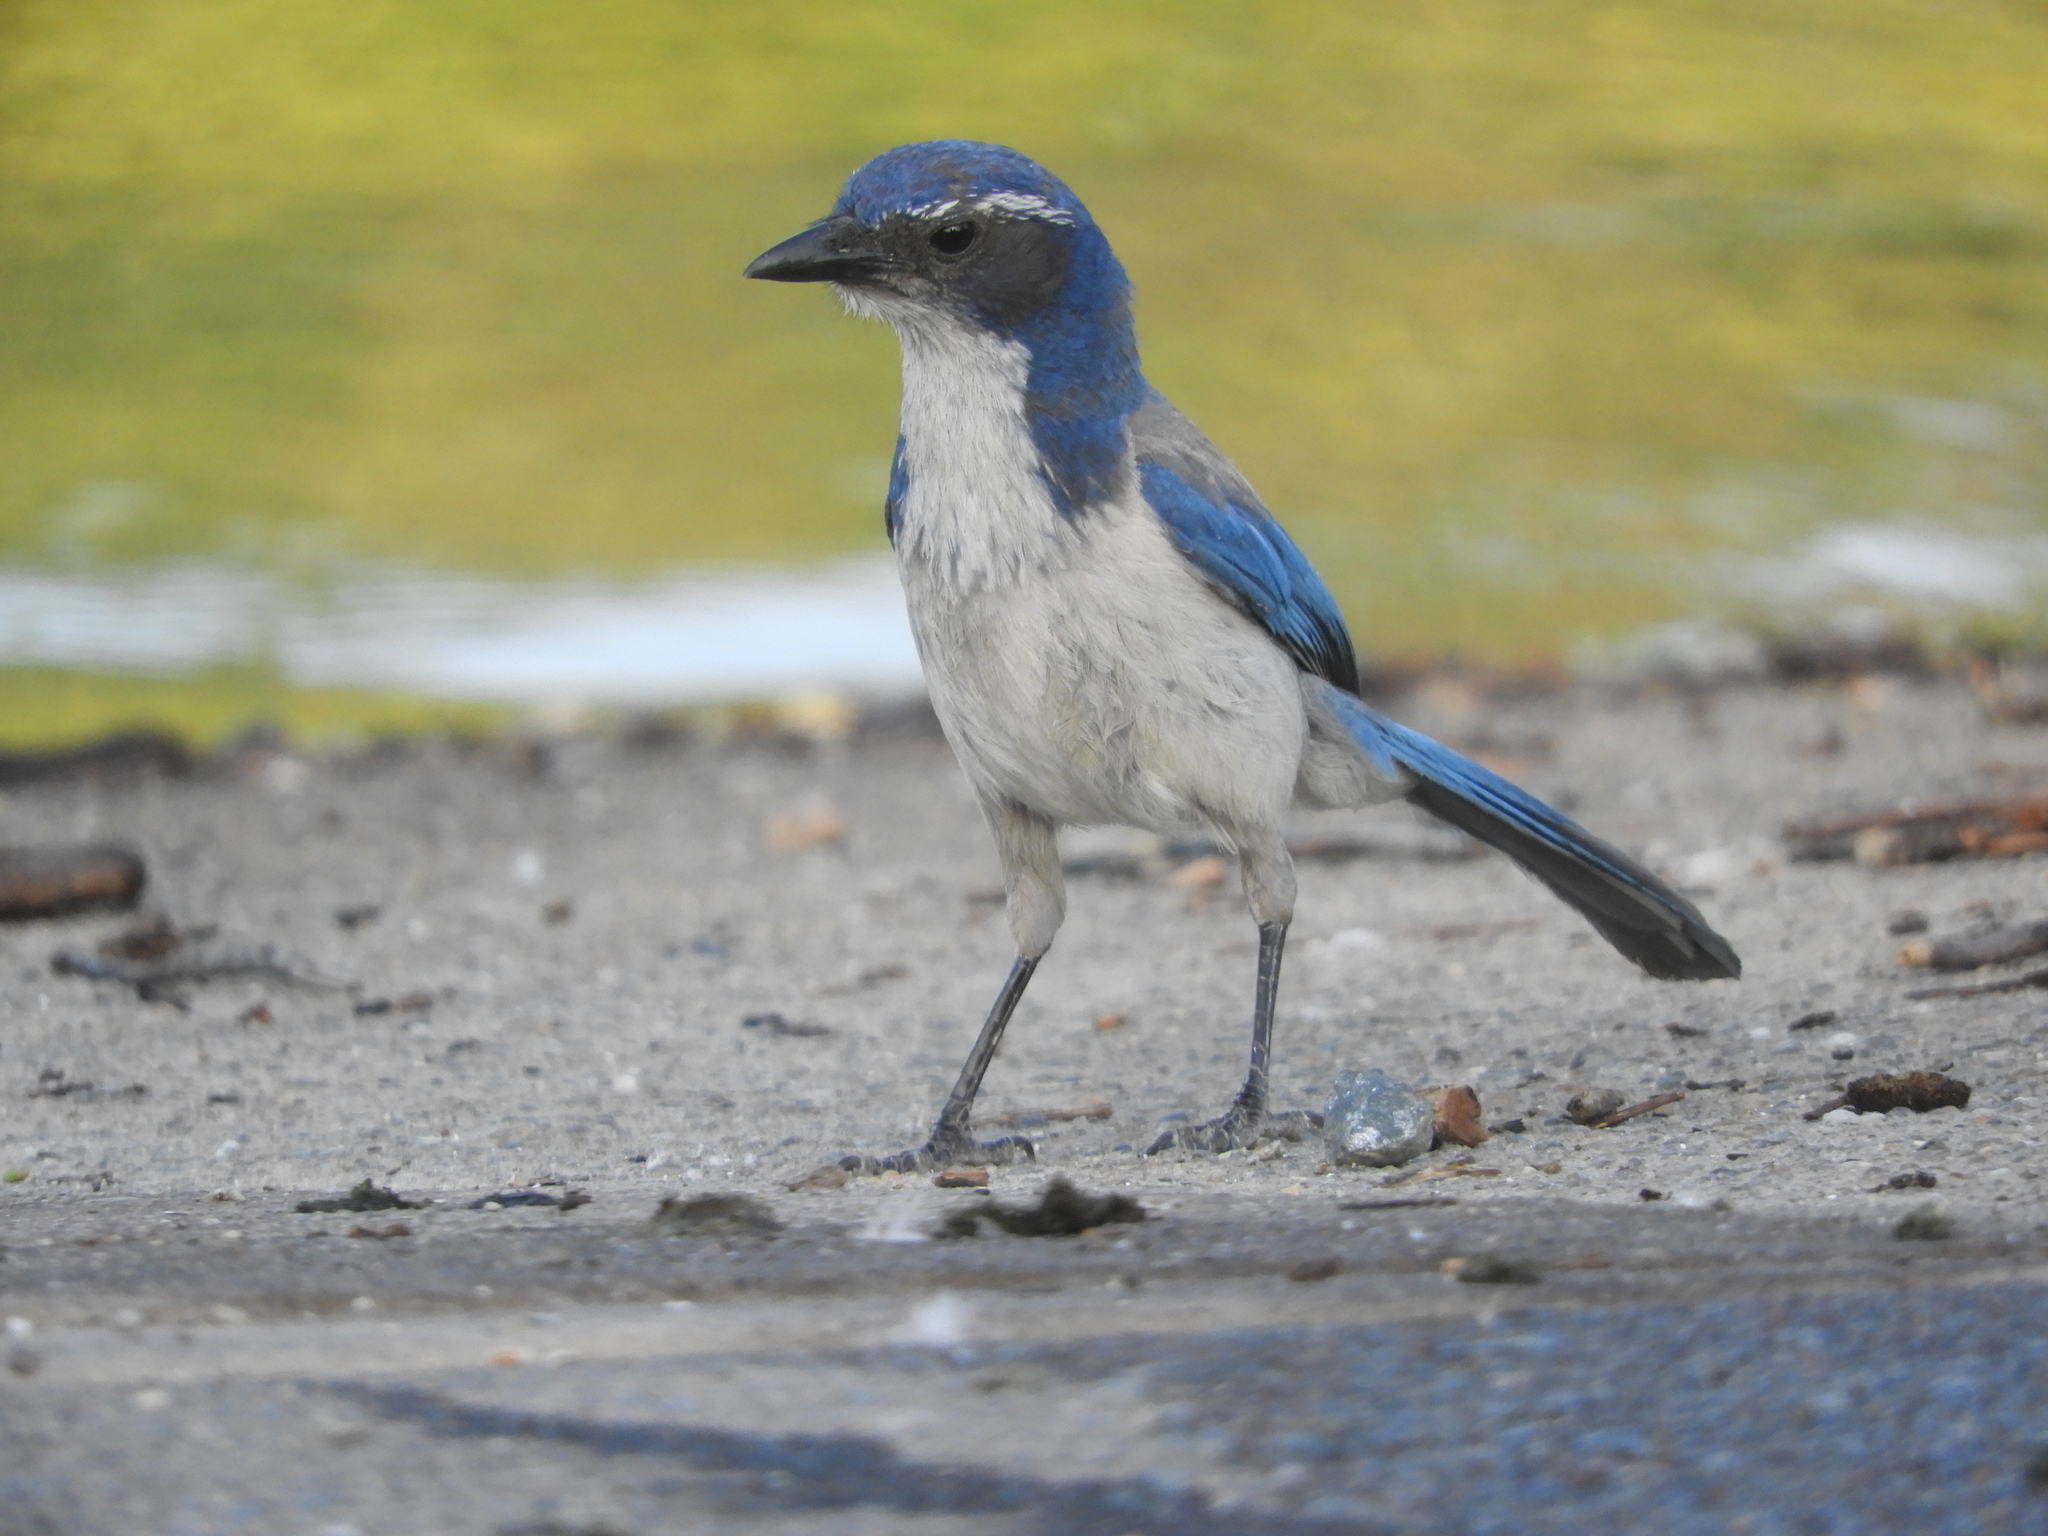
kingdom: Animalia
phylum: Chordata
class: Aves
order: Passeriformes
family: Corvidae
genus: Aphelocoma
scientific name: Aphelocoma californica
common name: California scrub-jay
